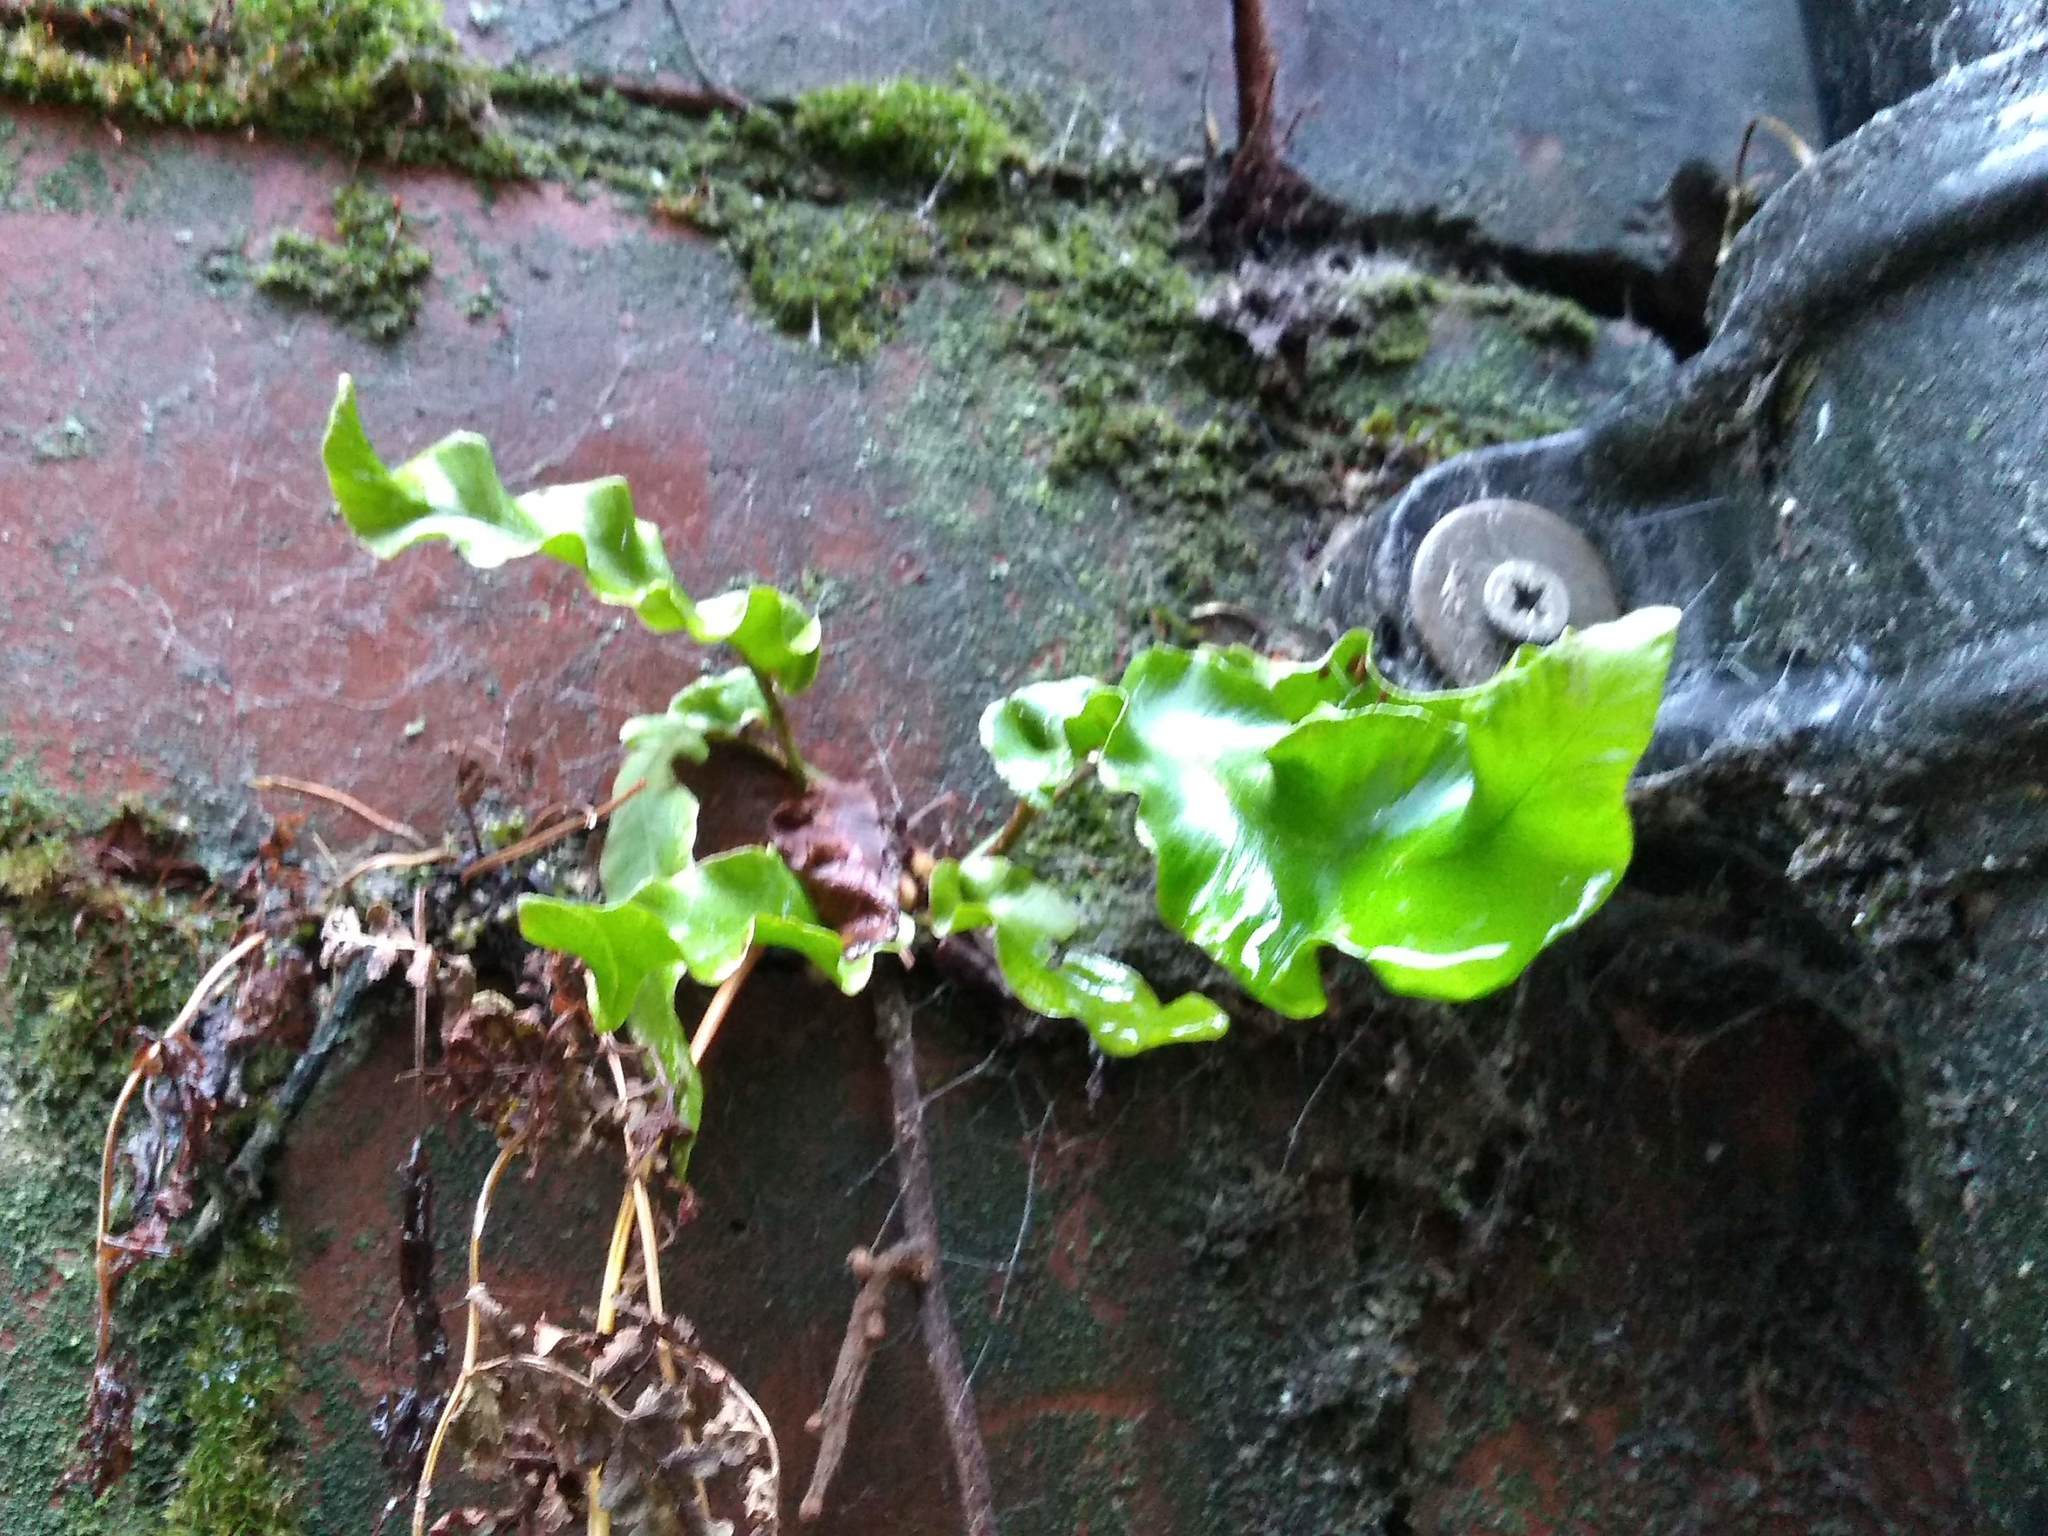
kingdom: Plantae
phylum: Tracheophyta
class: Polypodiopsida
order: Polypodiales
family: Aspleniaceae
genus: Asplenium
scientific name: Asplenium scolopendrium
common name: Hart's-tongue fern
